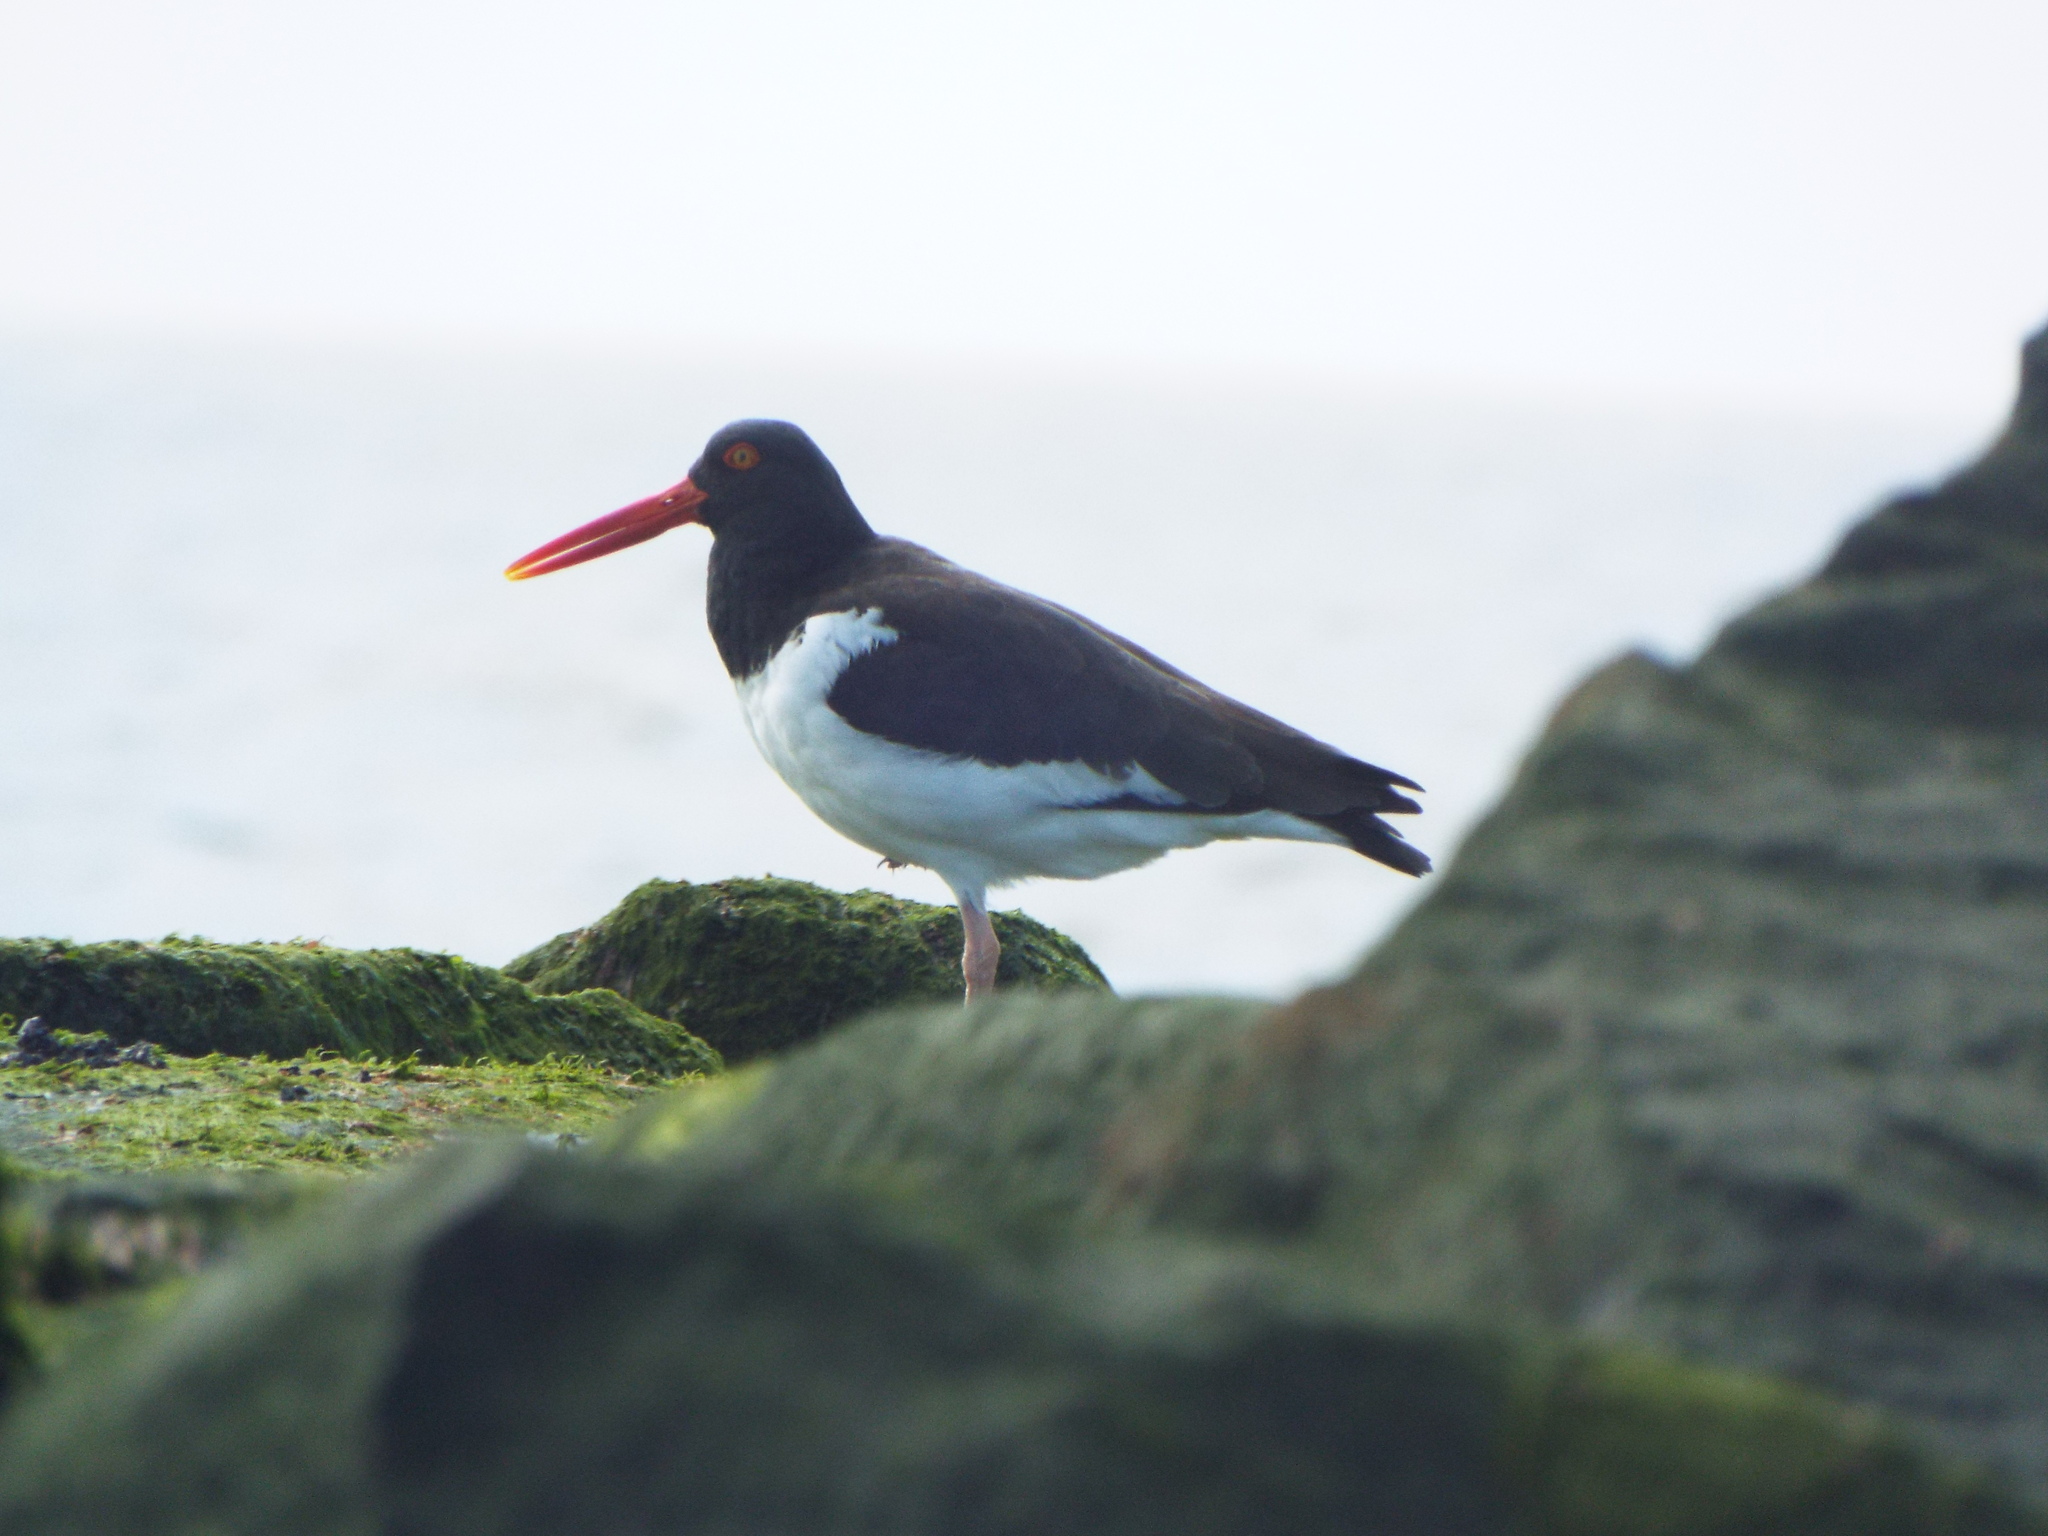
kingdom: Animalia
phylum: Chordata
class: Aves
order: Charadriiformes
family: Haematopodidae
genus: Haematopus
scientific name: Haematopus palliatus
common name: American oystercatcher
